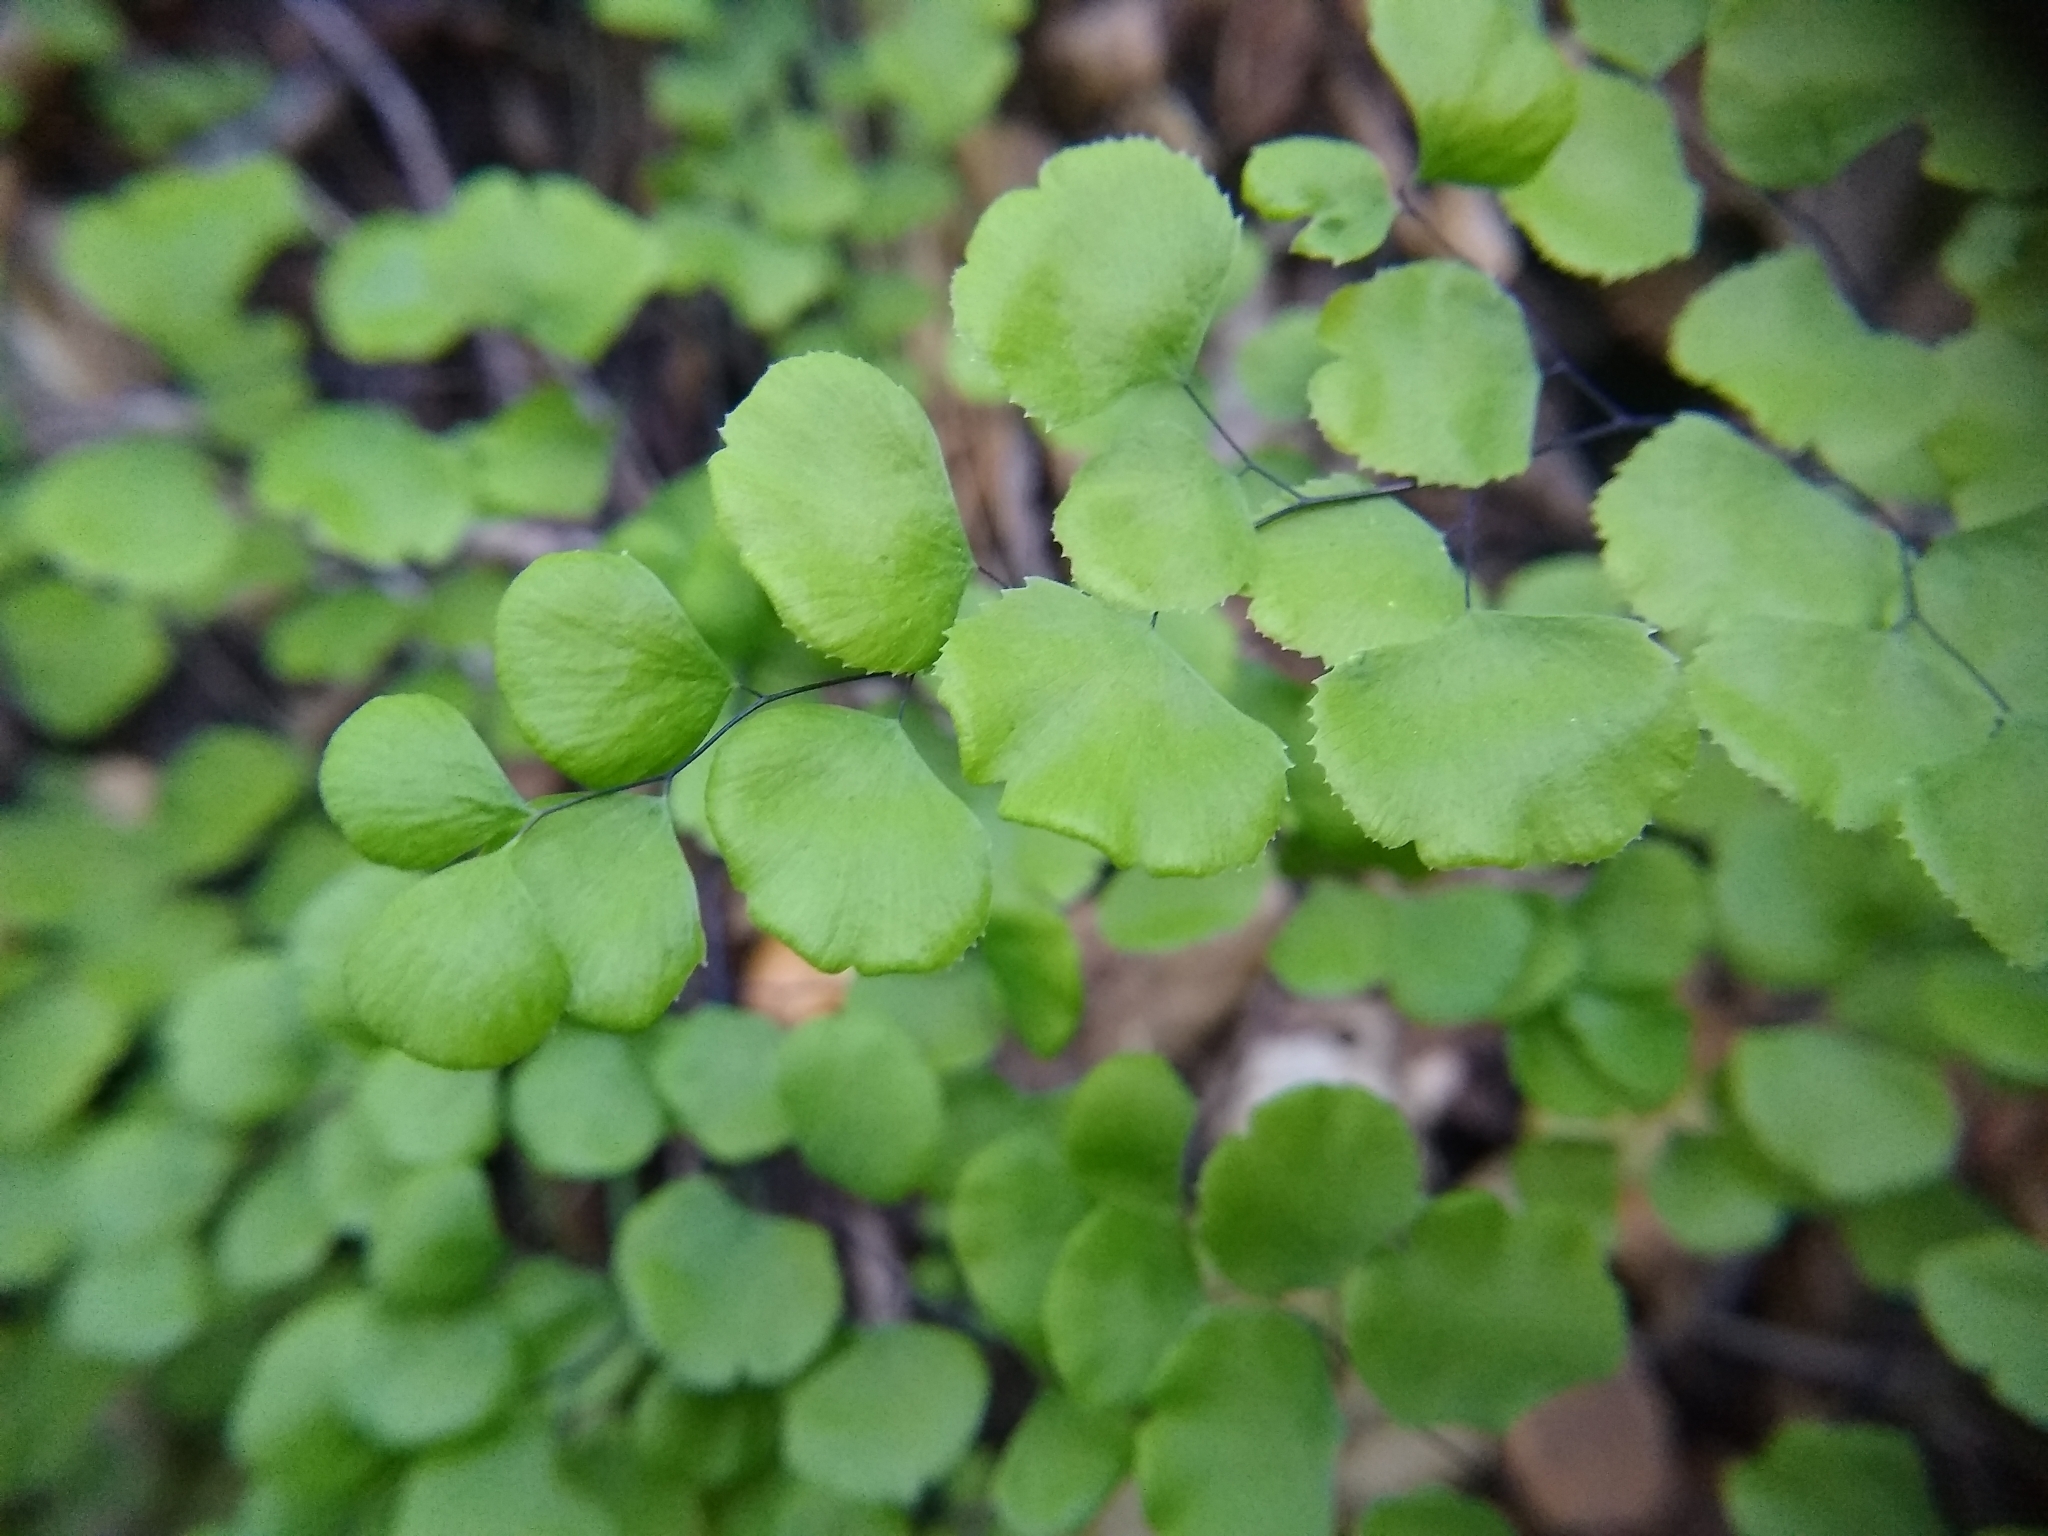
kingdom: Plantae
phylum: Tracheophyta
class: Polypodiopsida
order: Polypodiales
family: Pteridaceae
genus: Adiantum
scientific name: Adiantum jordanii
